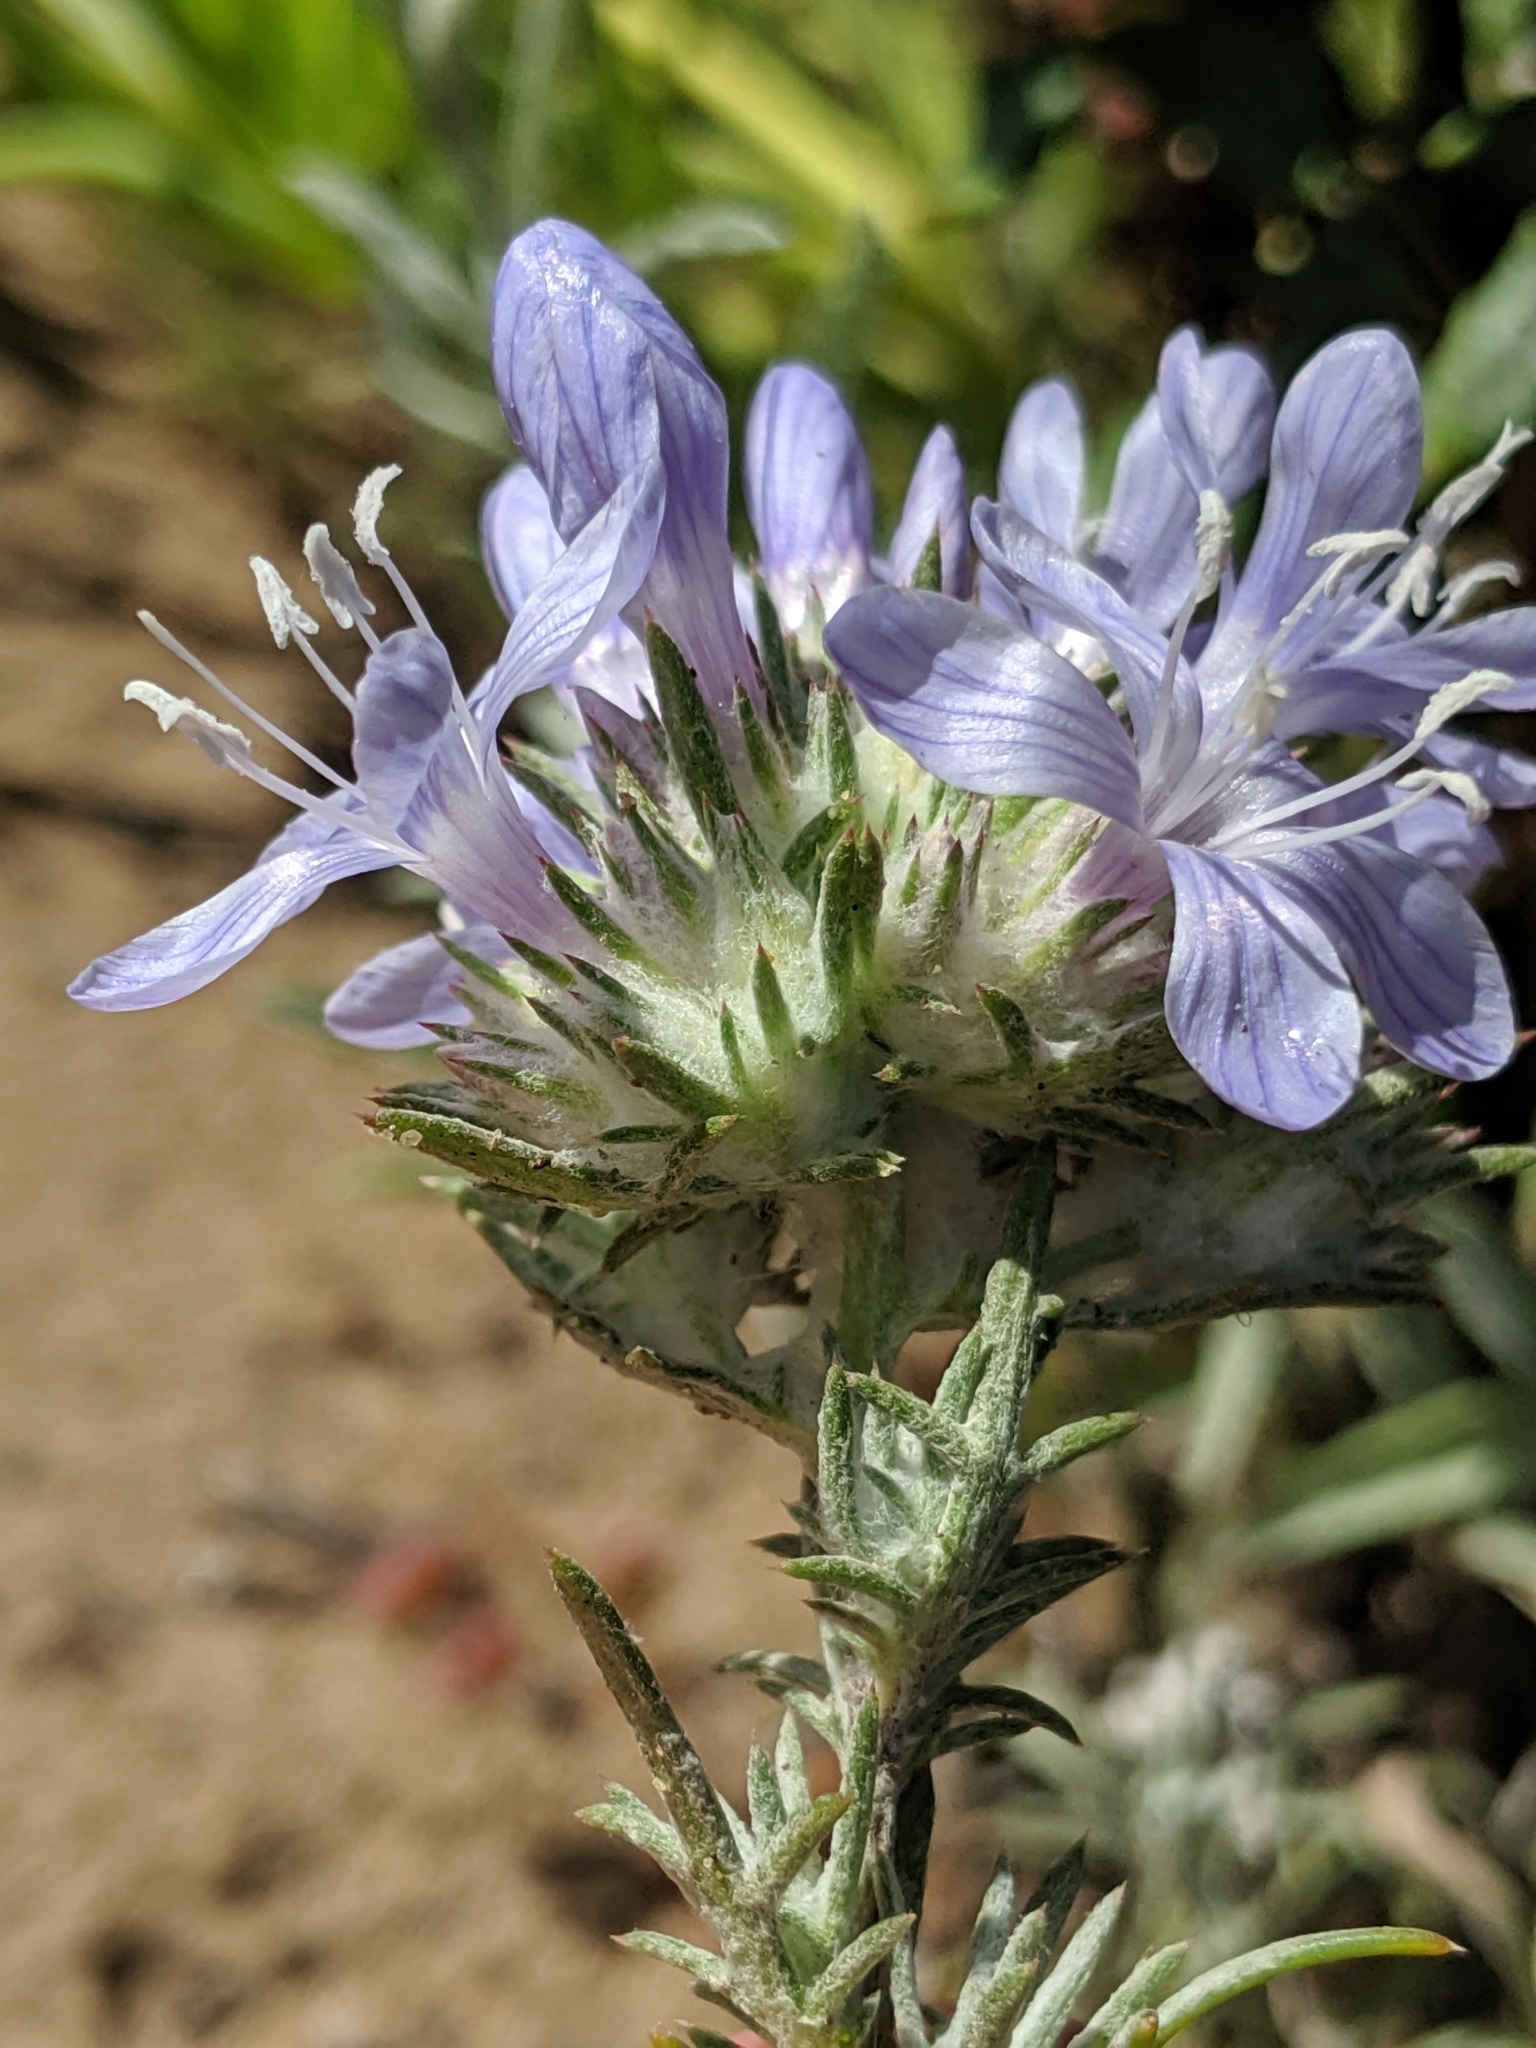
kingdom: Plantae
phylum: Tracheophyta
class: Magnoliopsida
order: Ericales
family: Polemoniaceae
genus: Eriastrum
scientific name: Eriastrum densifolium
